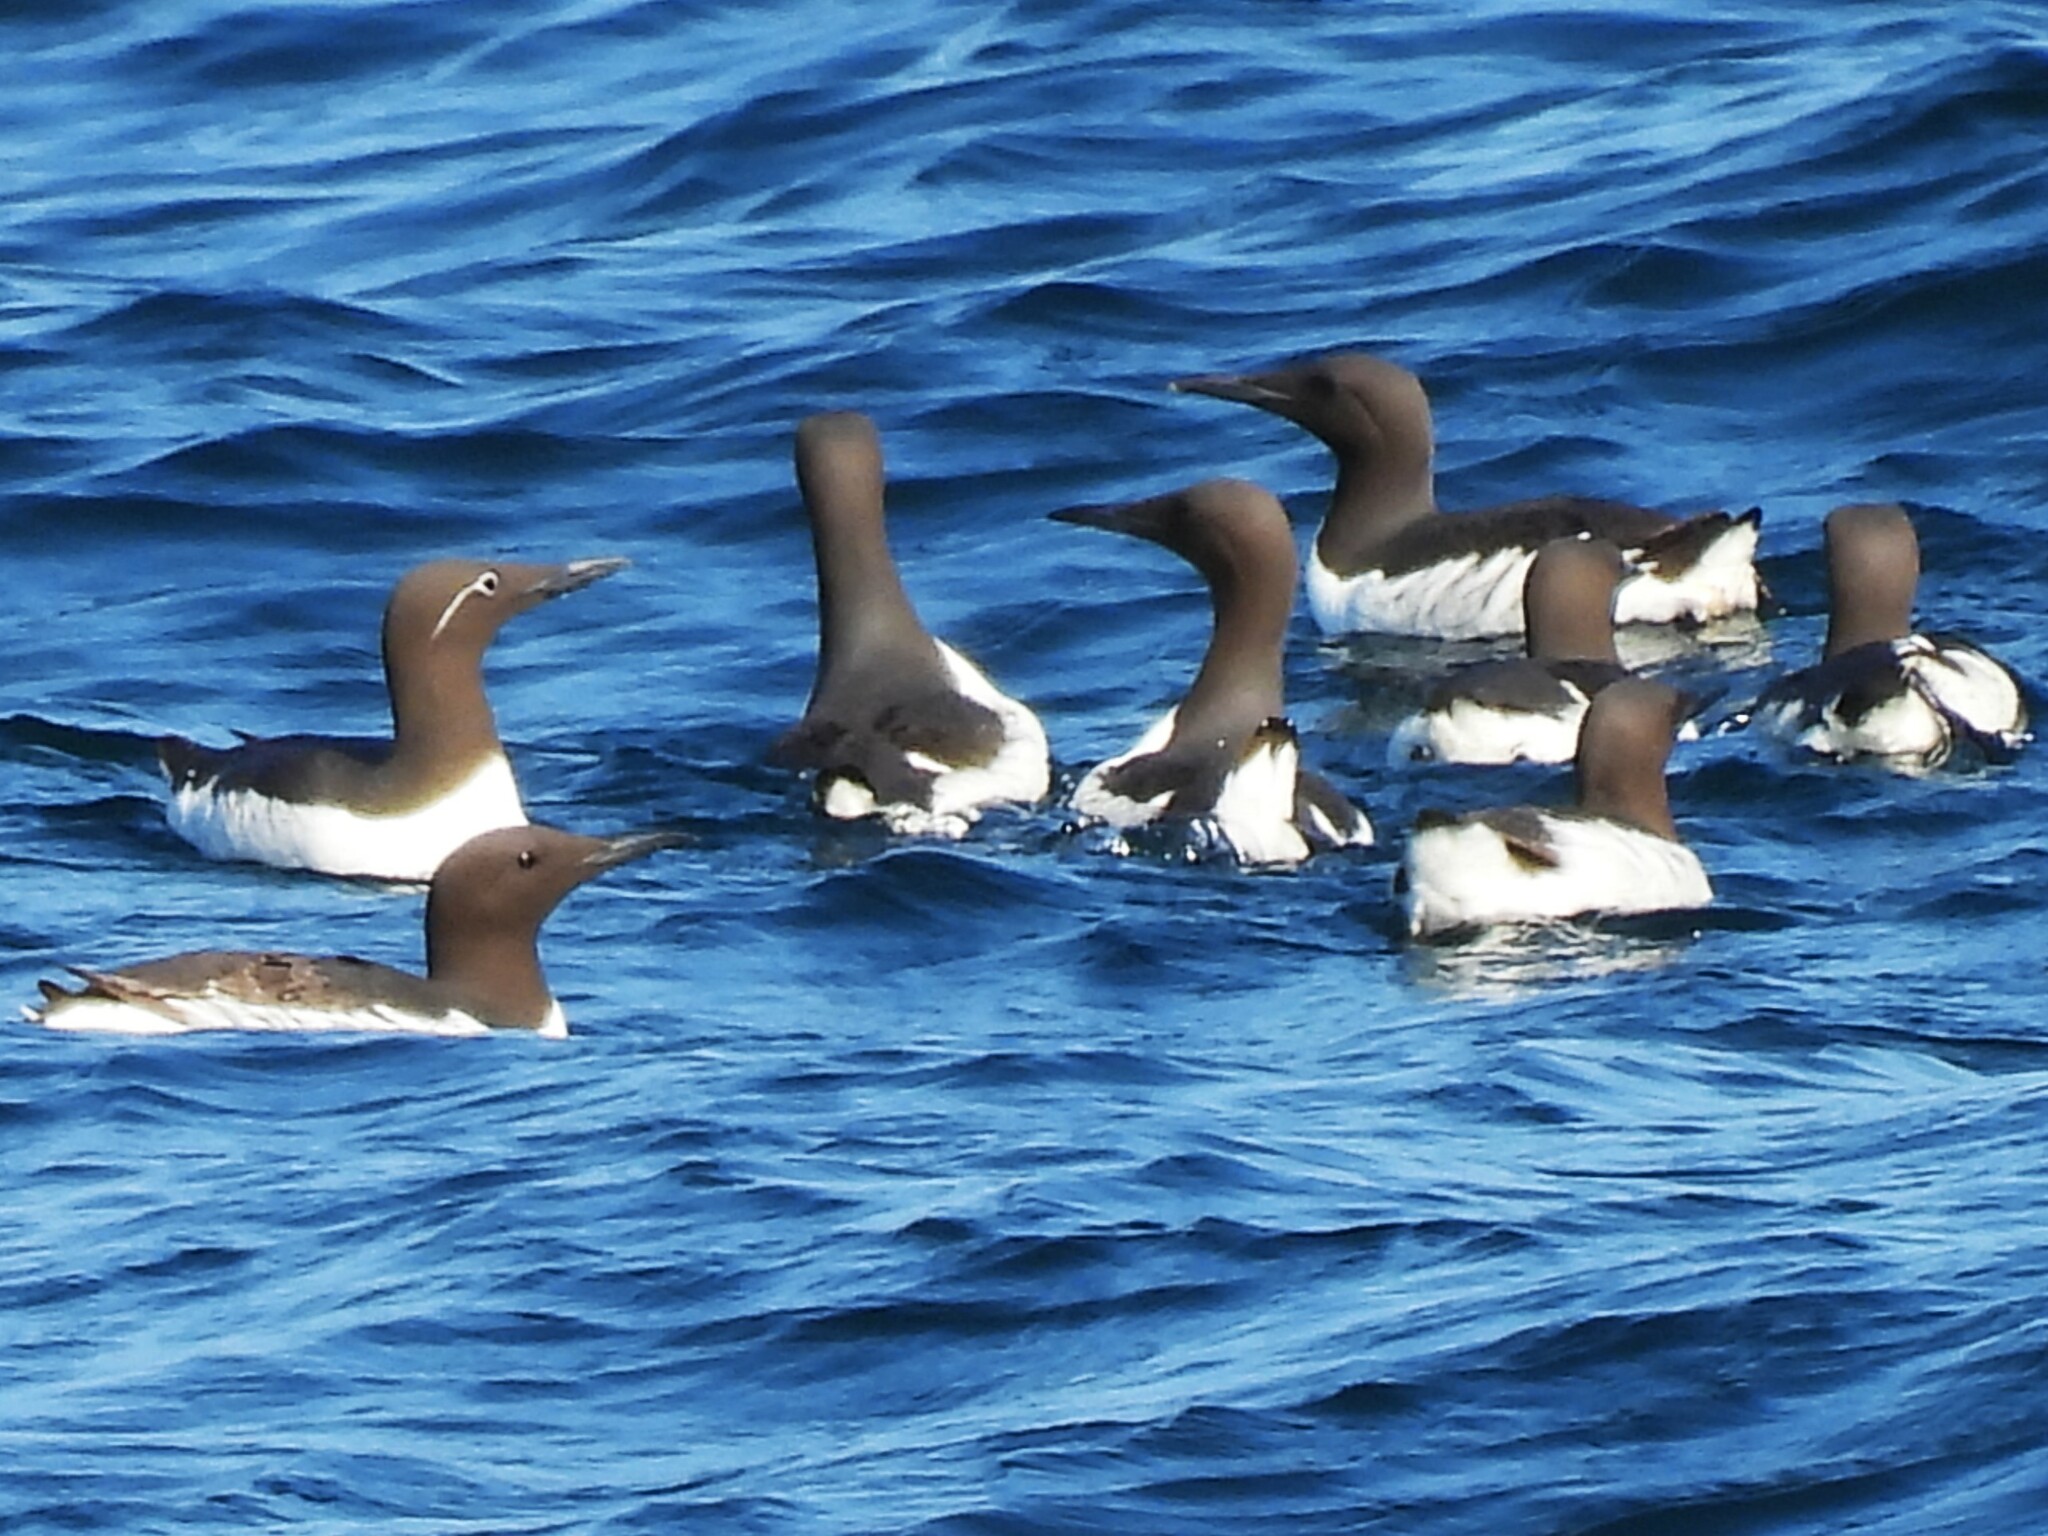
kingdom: Animalia
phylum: Chordata
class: Aves
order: Charadriiformes
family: Alcidae
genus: Uria
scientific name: Uria aalge
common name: Common murre
